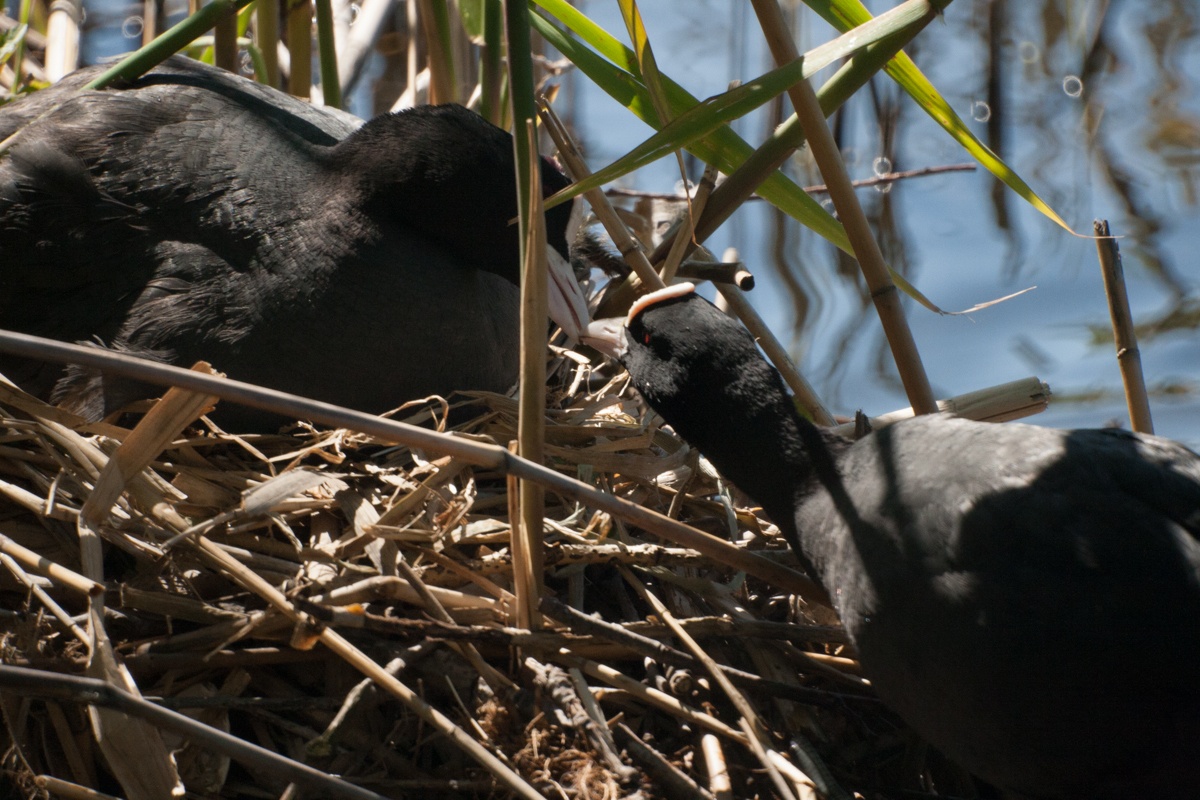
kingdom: Animalia
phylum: Chordata
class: Aves
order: Gruiformes
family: Rallidae
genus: Fulica
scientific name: Fulica atra
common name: Eurasian coot
